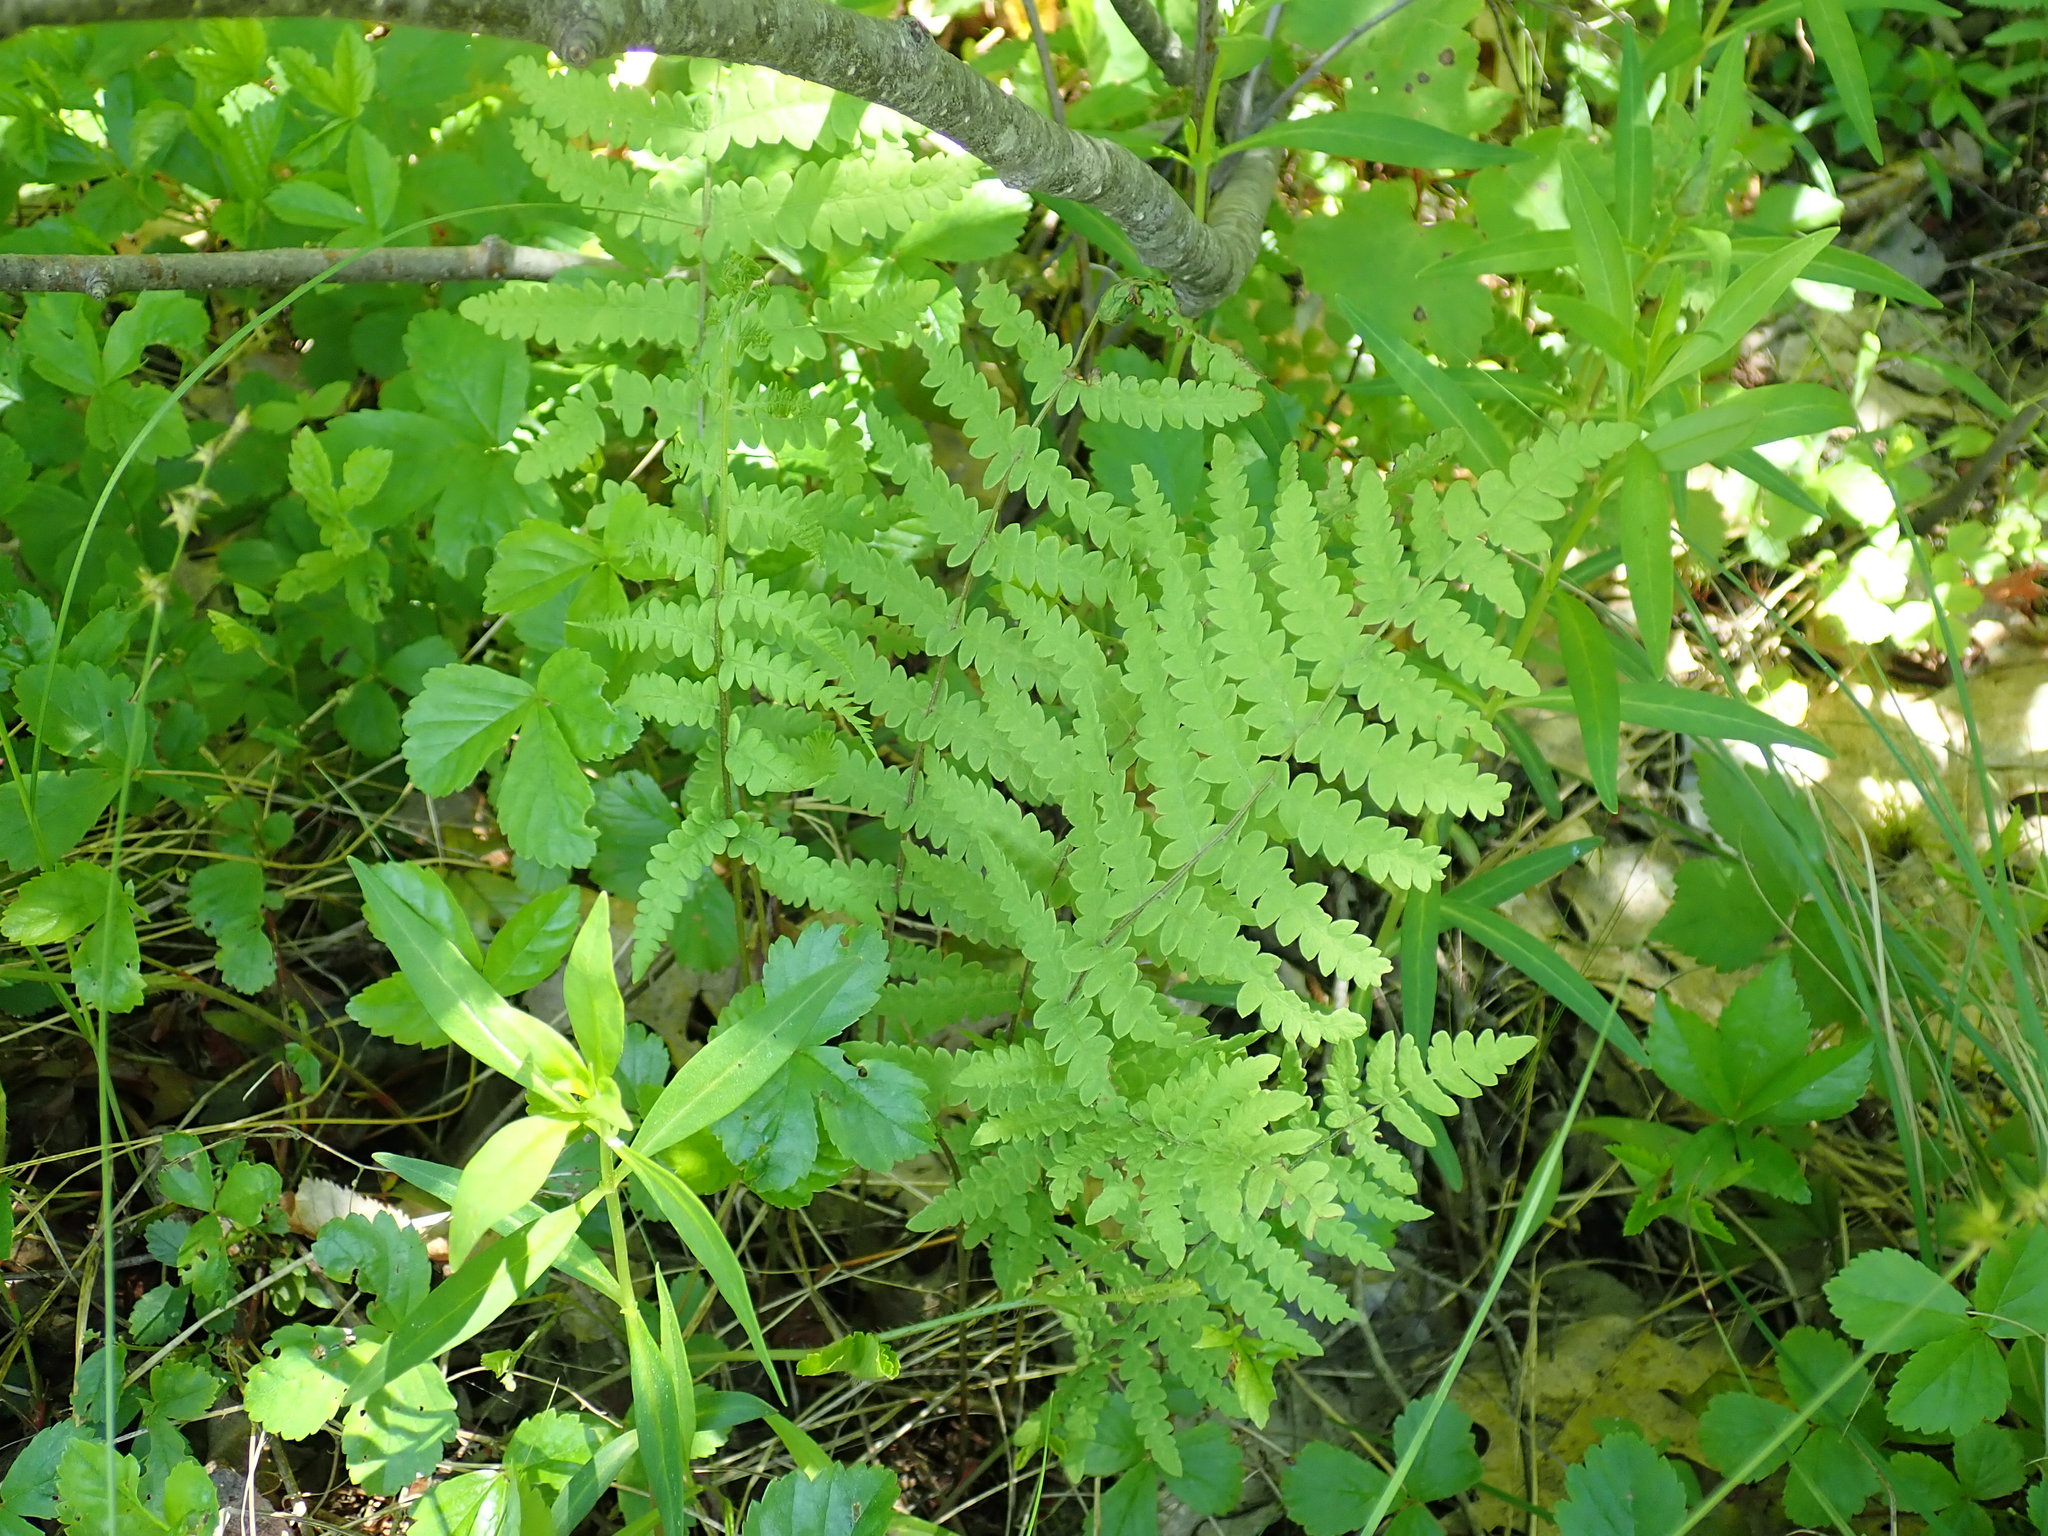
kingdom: Plantae
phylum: Tracheophyta
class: Polypodiopsida
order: Polypodiales
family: Thelypteridaceae
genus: Thelypteris
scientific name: Thelypteris palustris
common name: Marsh fern
